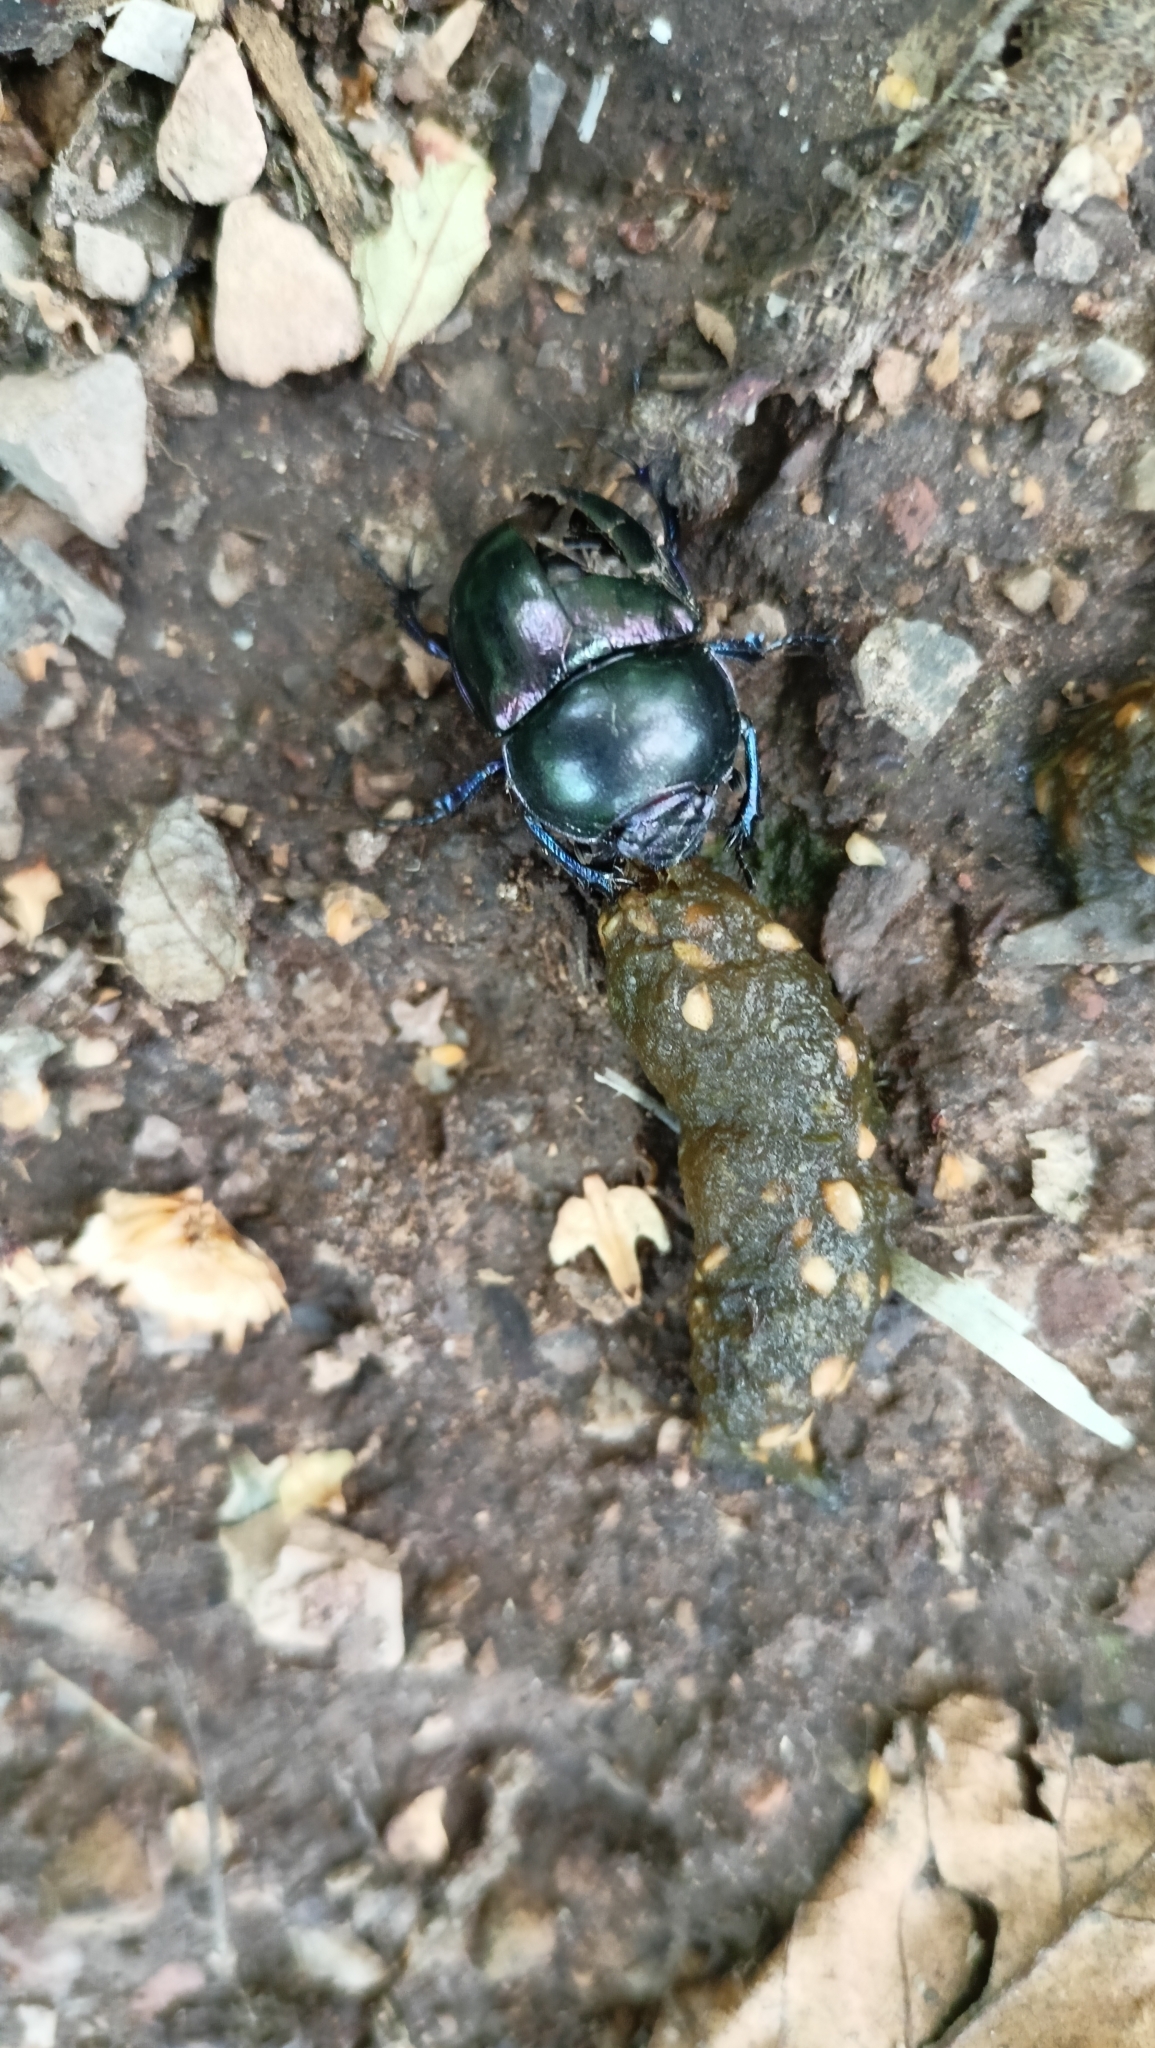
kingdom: Animalia
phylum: Arthropoda
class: Insecta
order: Coleoptera
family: Geotrupidae
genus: Trypocopris
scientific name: Trypocopris pyrenaeus
